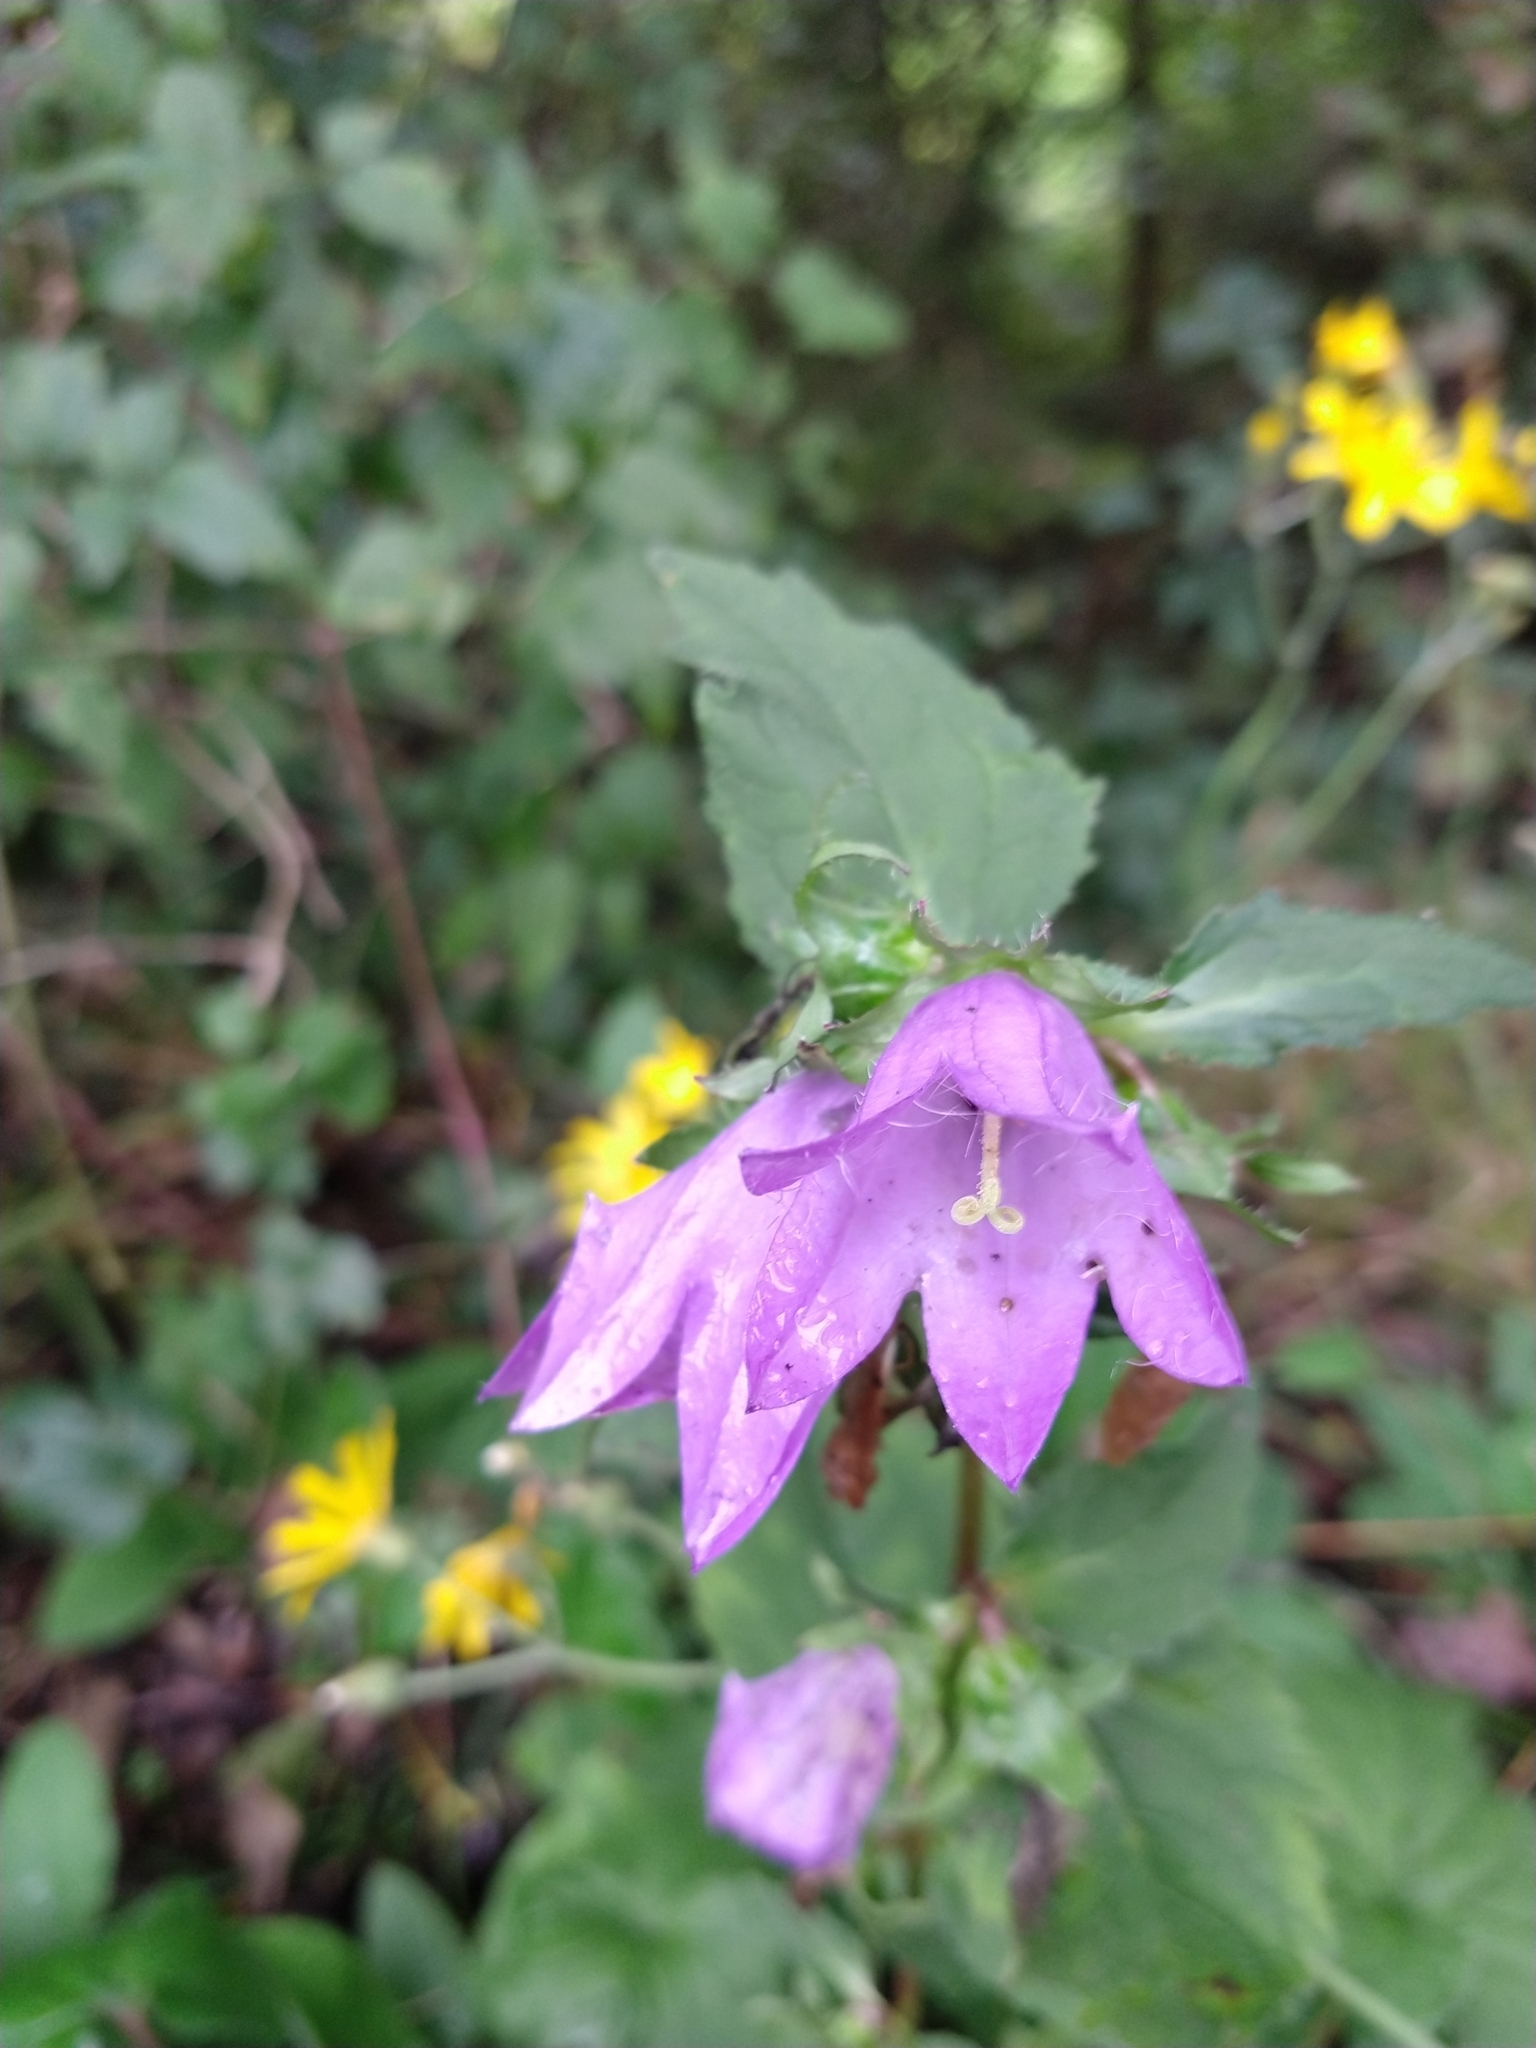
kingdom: Plantae
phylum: Tracheophyta
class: Magnoliopsida
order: Asterales
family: Campanulaceae
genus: Campanula
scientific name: Campanula trachelium
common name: Nettle-leaved bellflower
